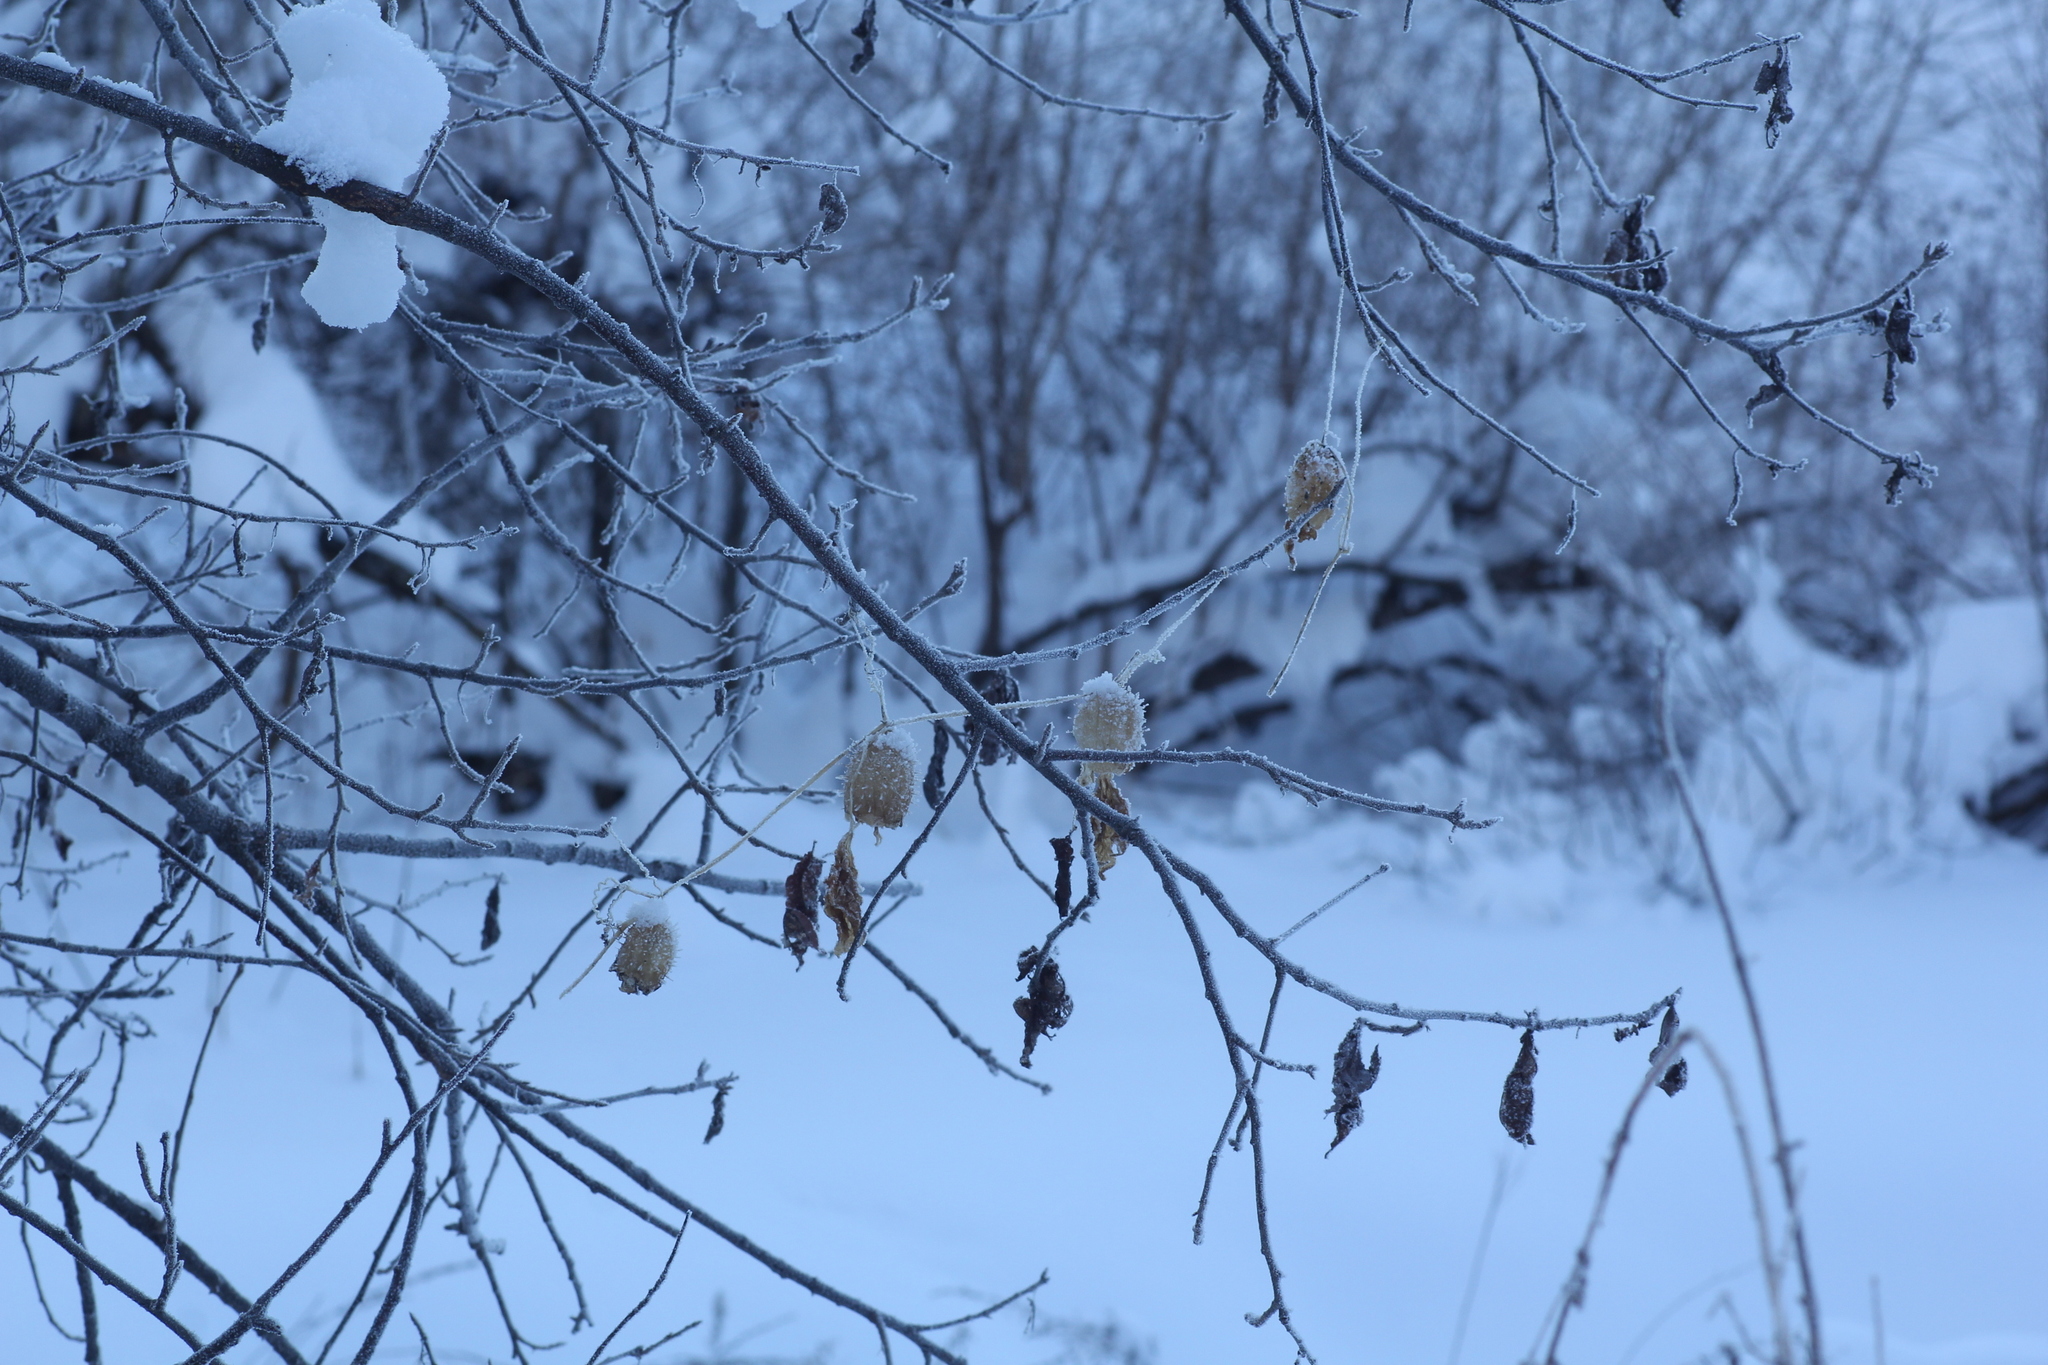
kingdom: Plantae
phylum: Tracheophyta
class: Magnoliopsida
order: Cucurbitales
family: Cucurbitaceae
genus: Echinocystis
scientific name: Echinocystis lobata
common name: Wild cucumber
